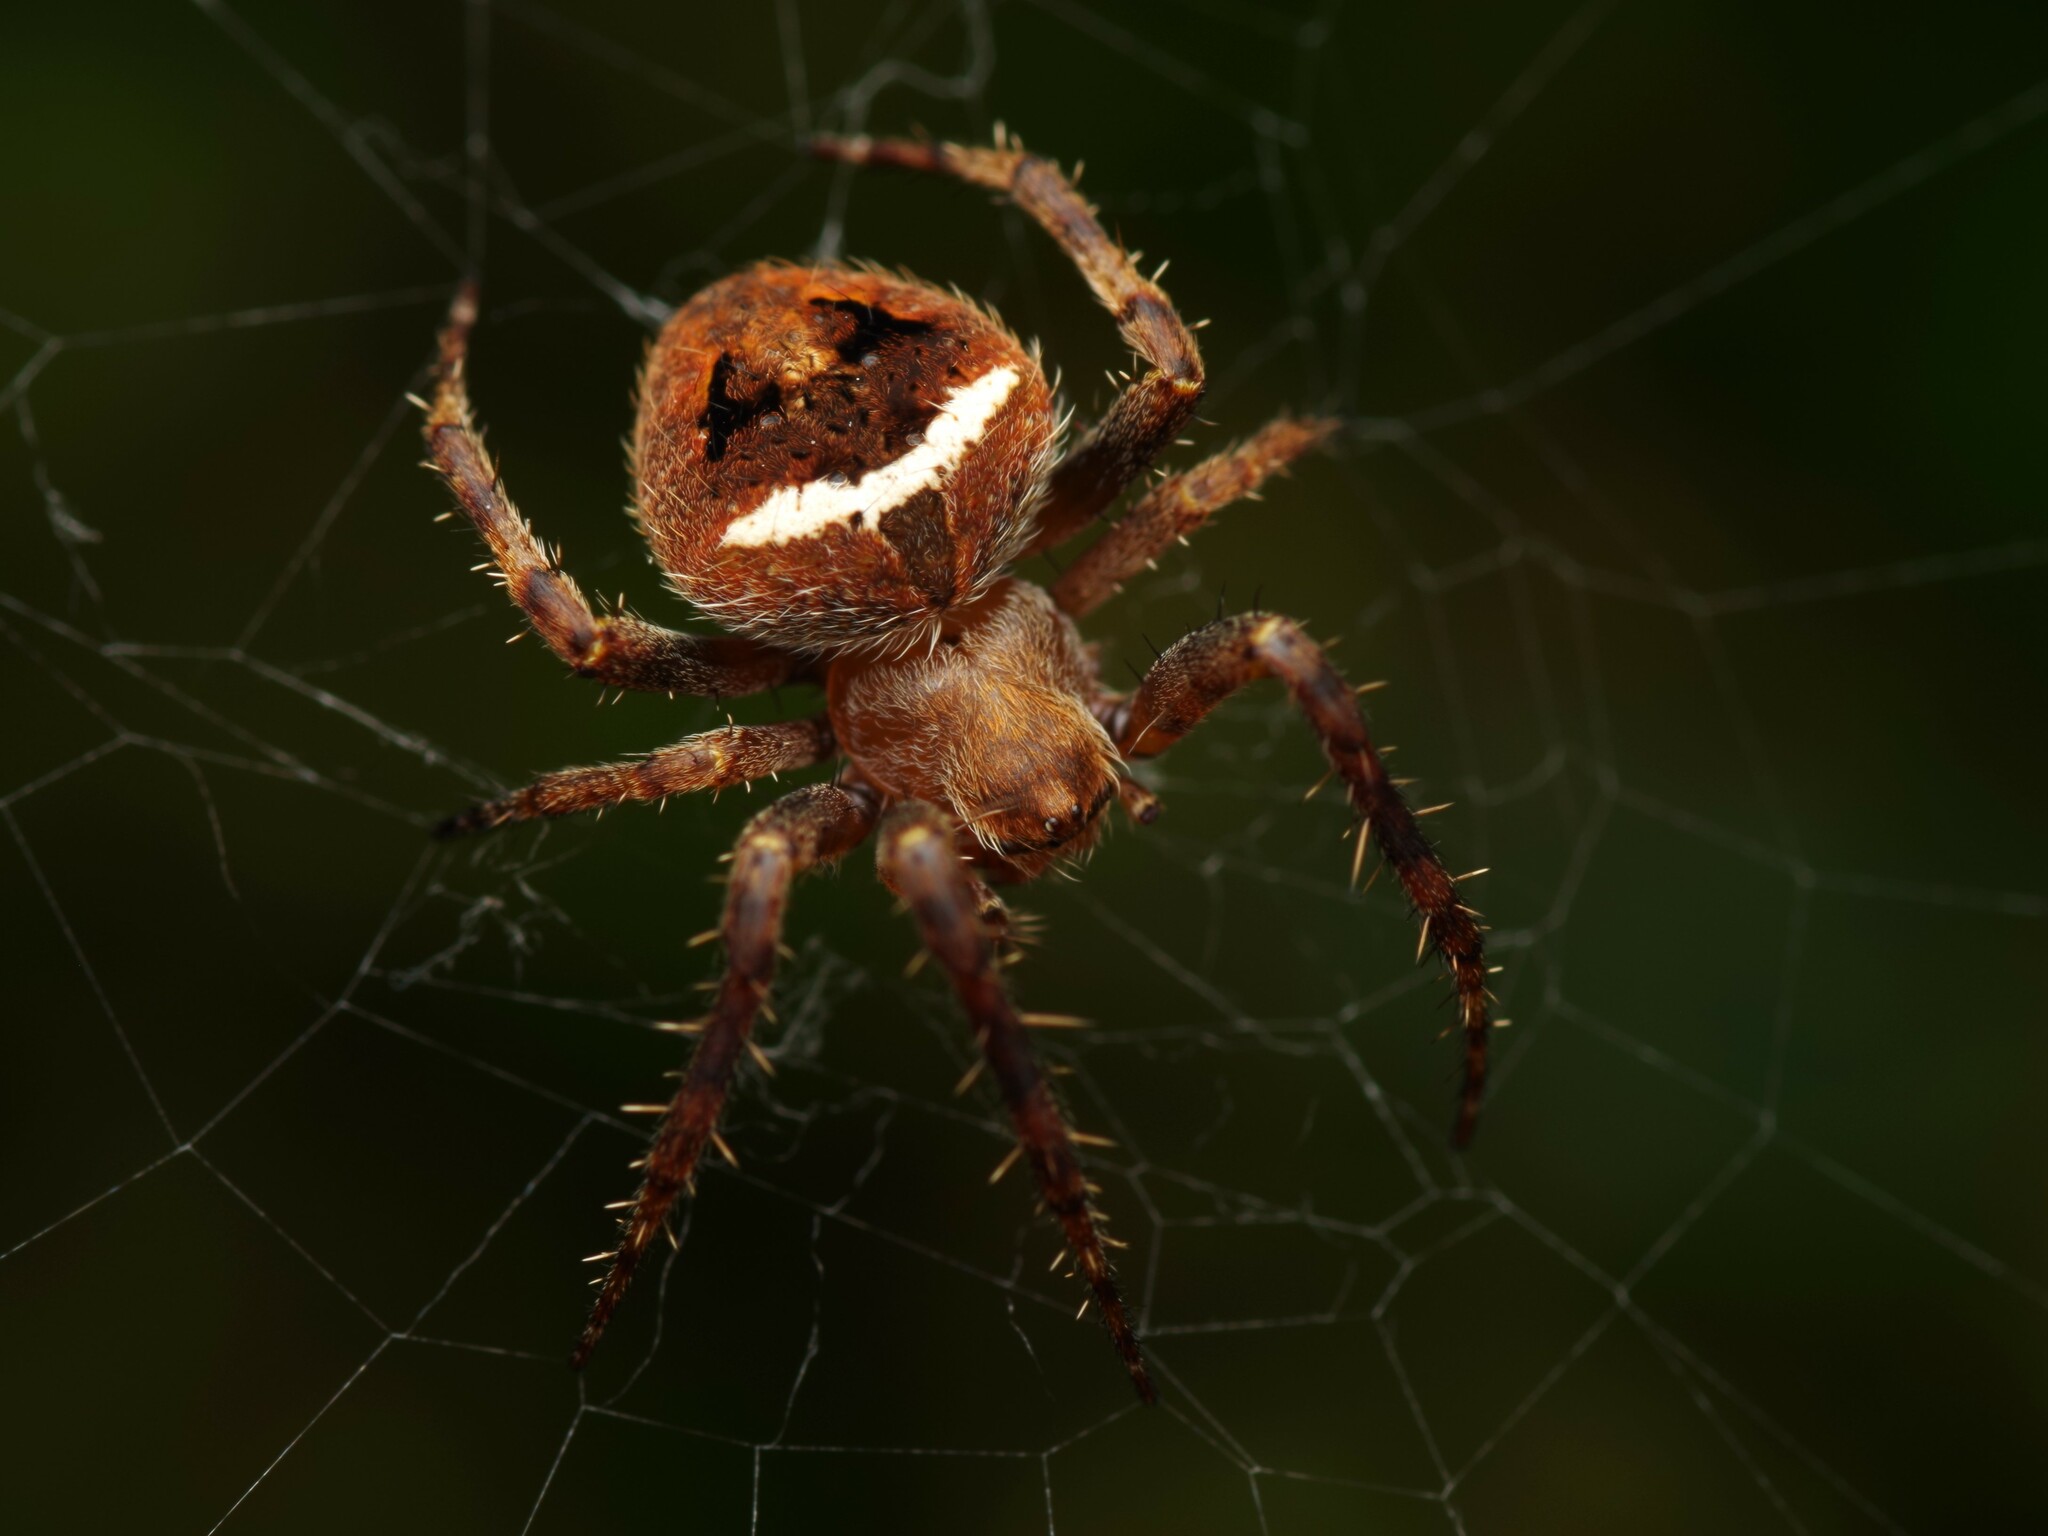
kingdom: Animalia
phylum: Arthropoda
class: Arachnida
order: Araneae
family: Araneidae
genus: Neoscona
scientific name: Neoscona subfusca
